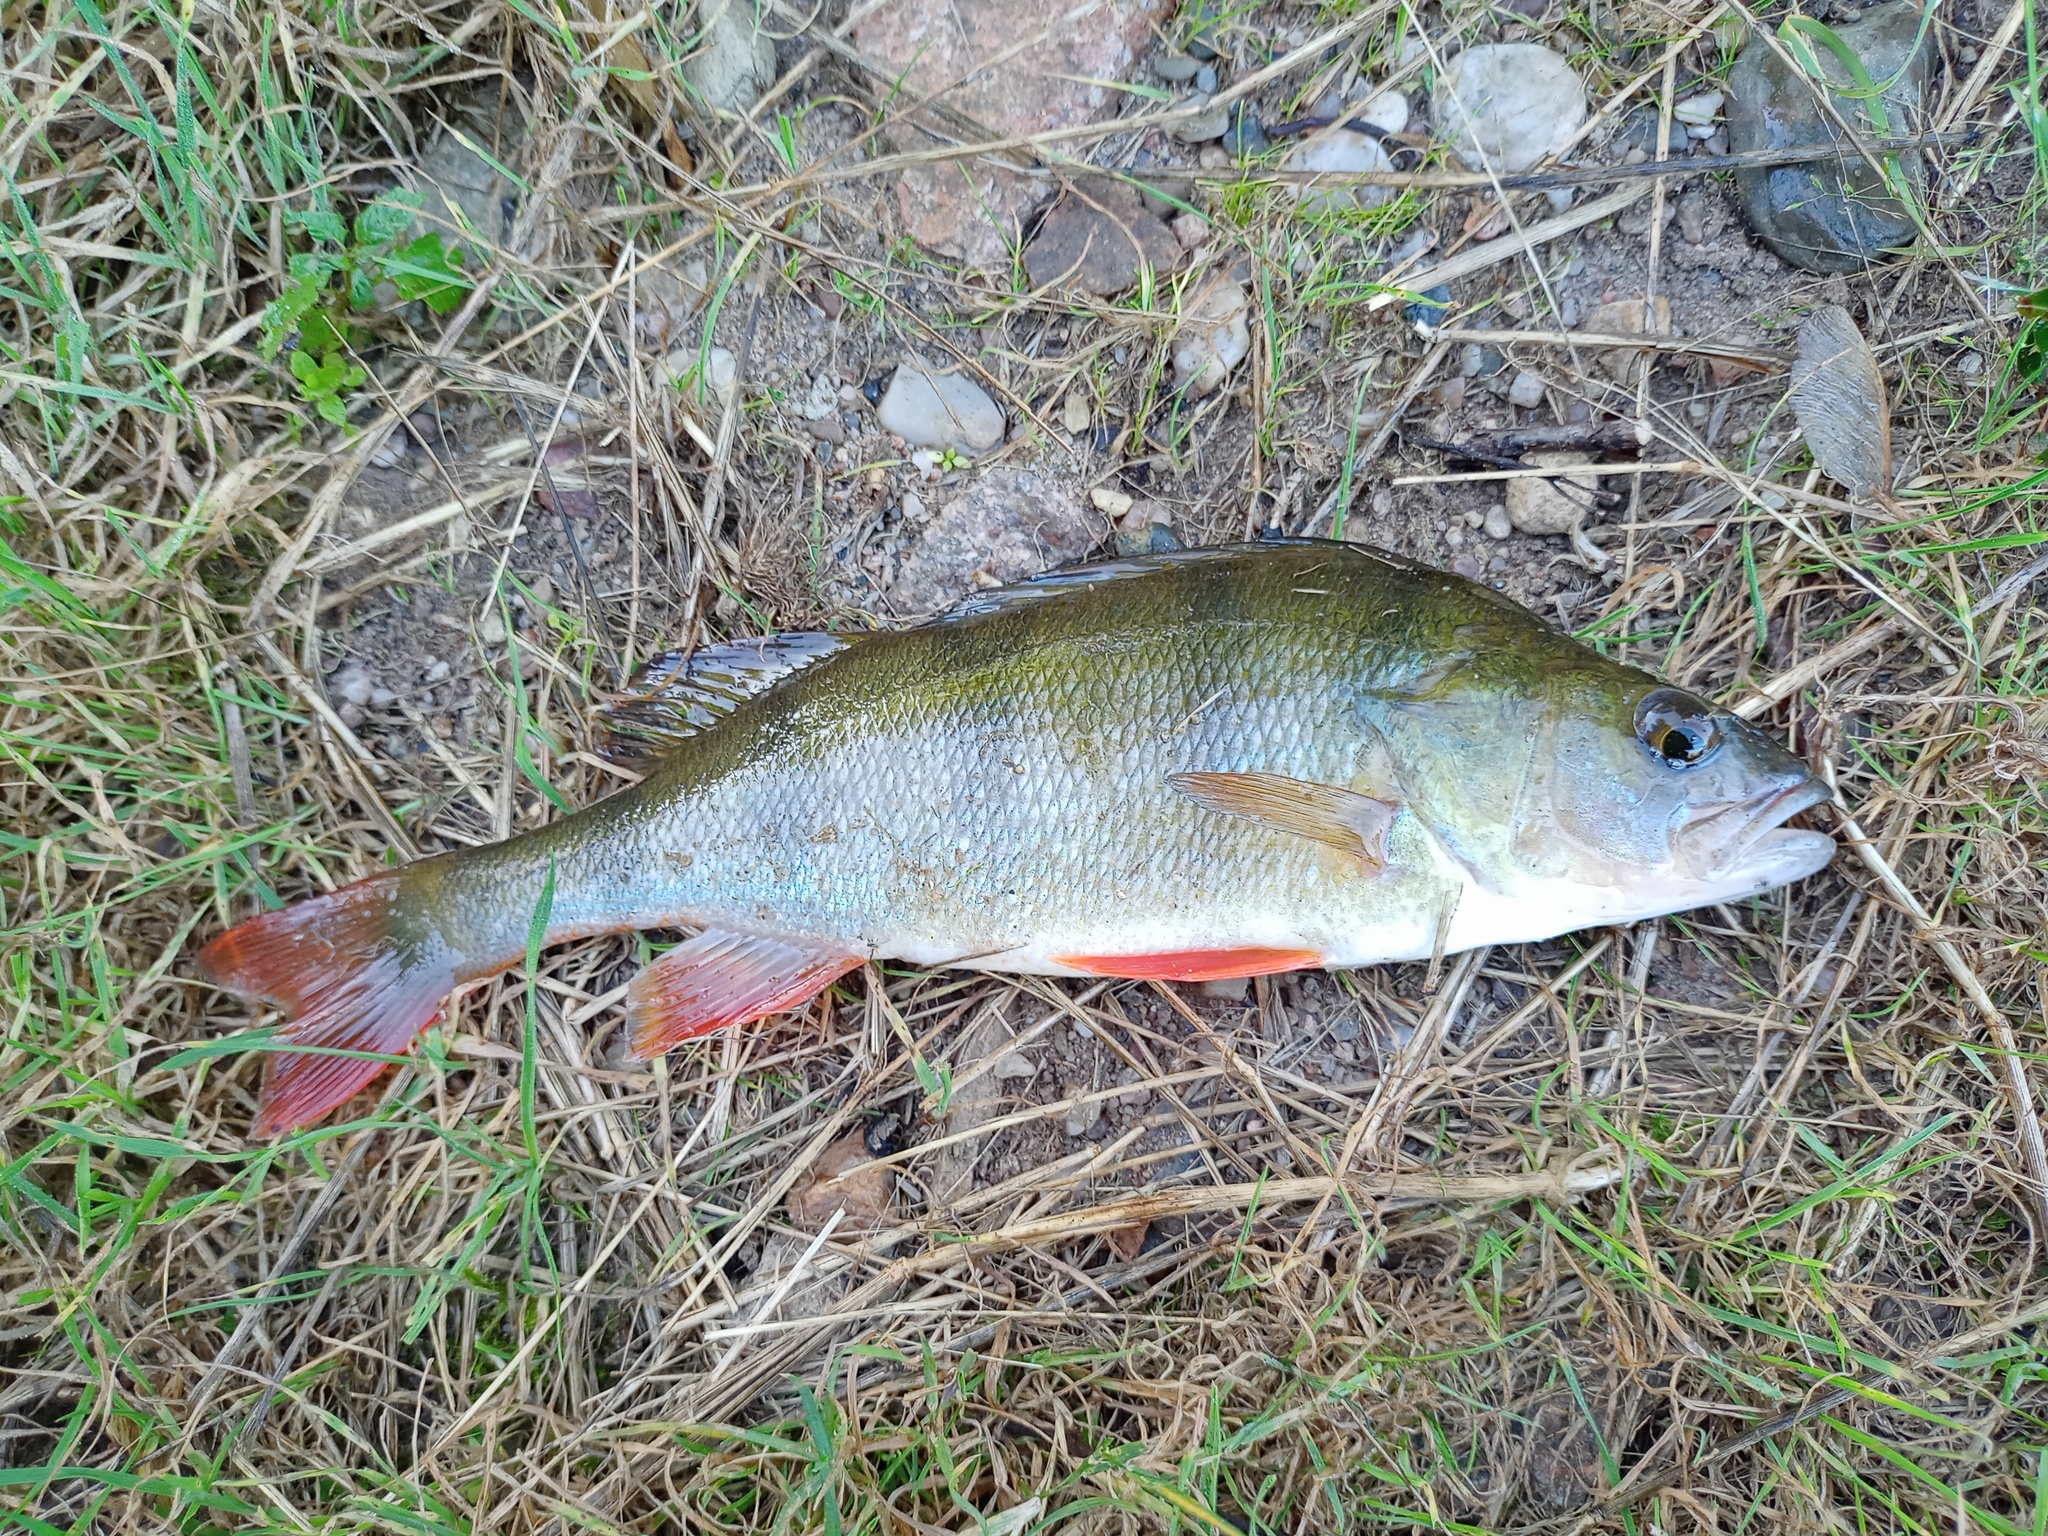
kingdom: Animalia
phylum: Chordata
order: Perciformes
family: Percidae
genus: Perca
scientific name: Perca fluviatilis
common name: Perch
